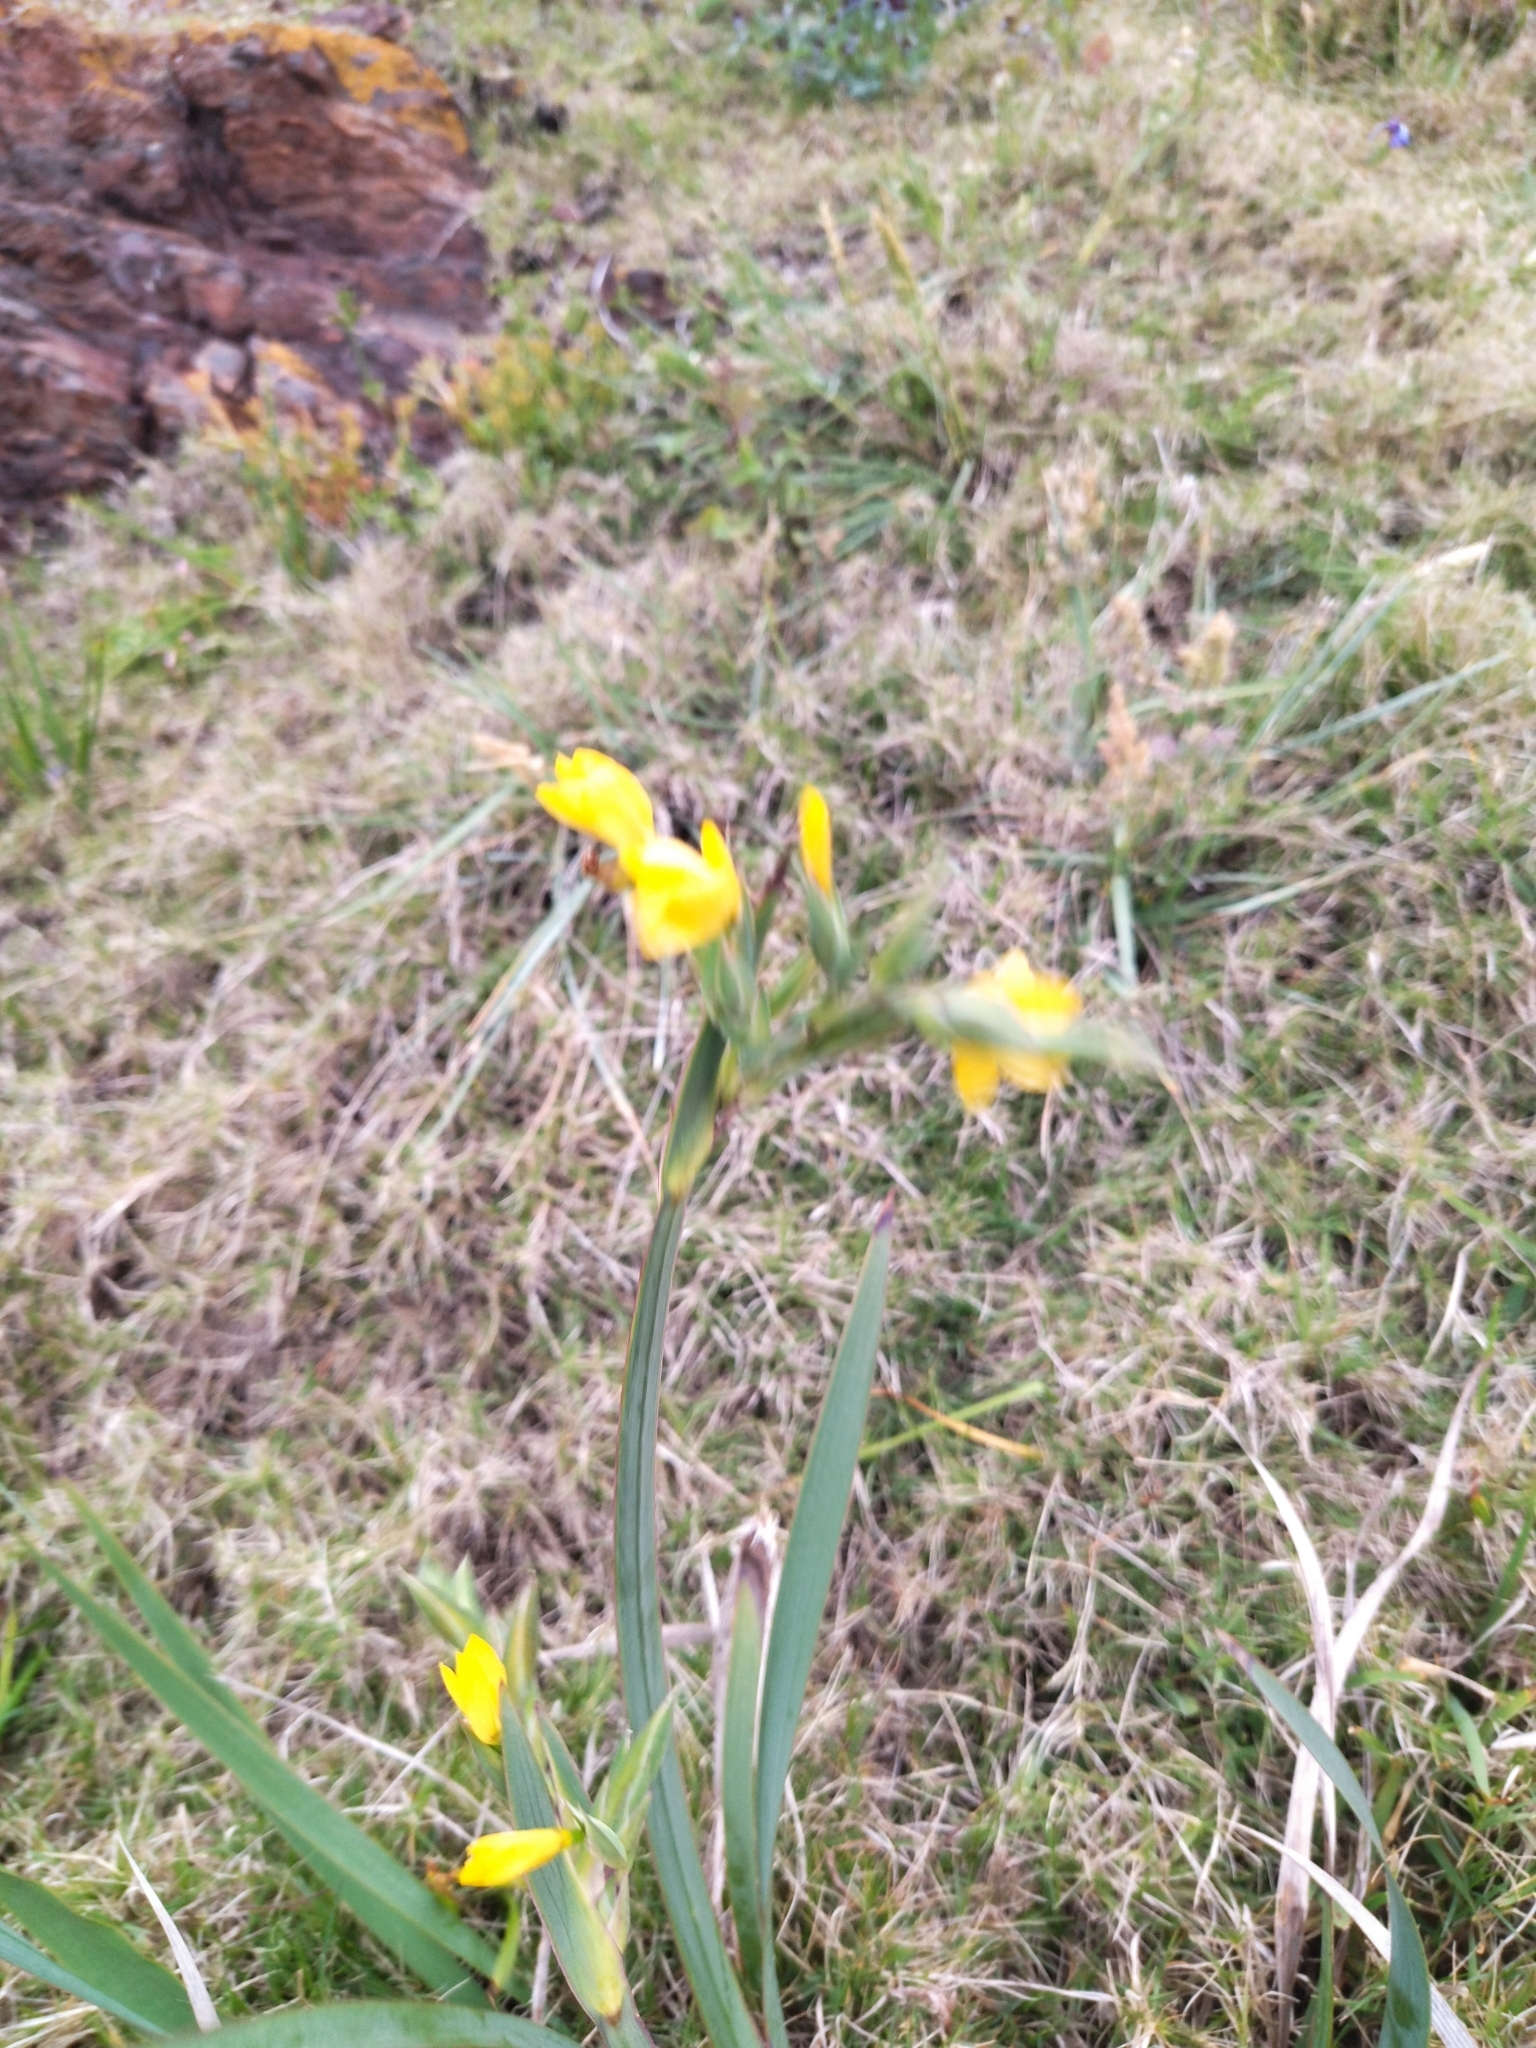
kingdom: Plantae
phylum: Tracheophyta
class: Liliopsida
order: Asparagales
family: Iridaceae
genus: Sisyrinchium
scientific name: Sisyrinchium palmifolium
